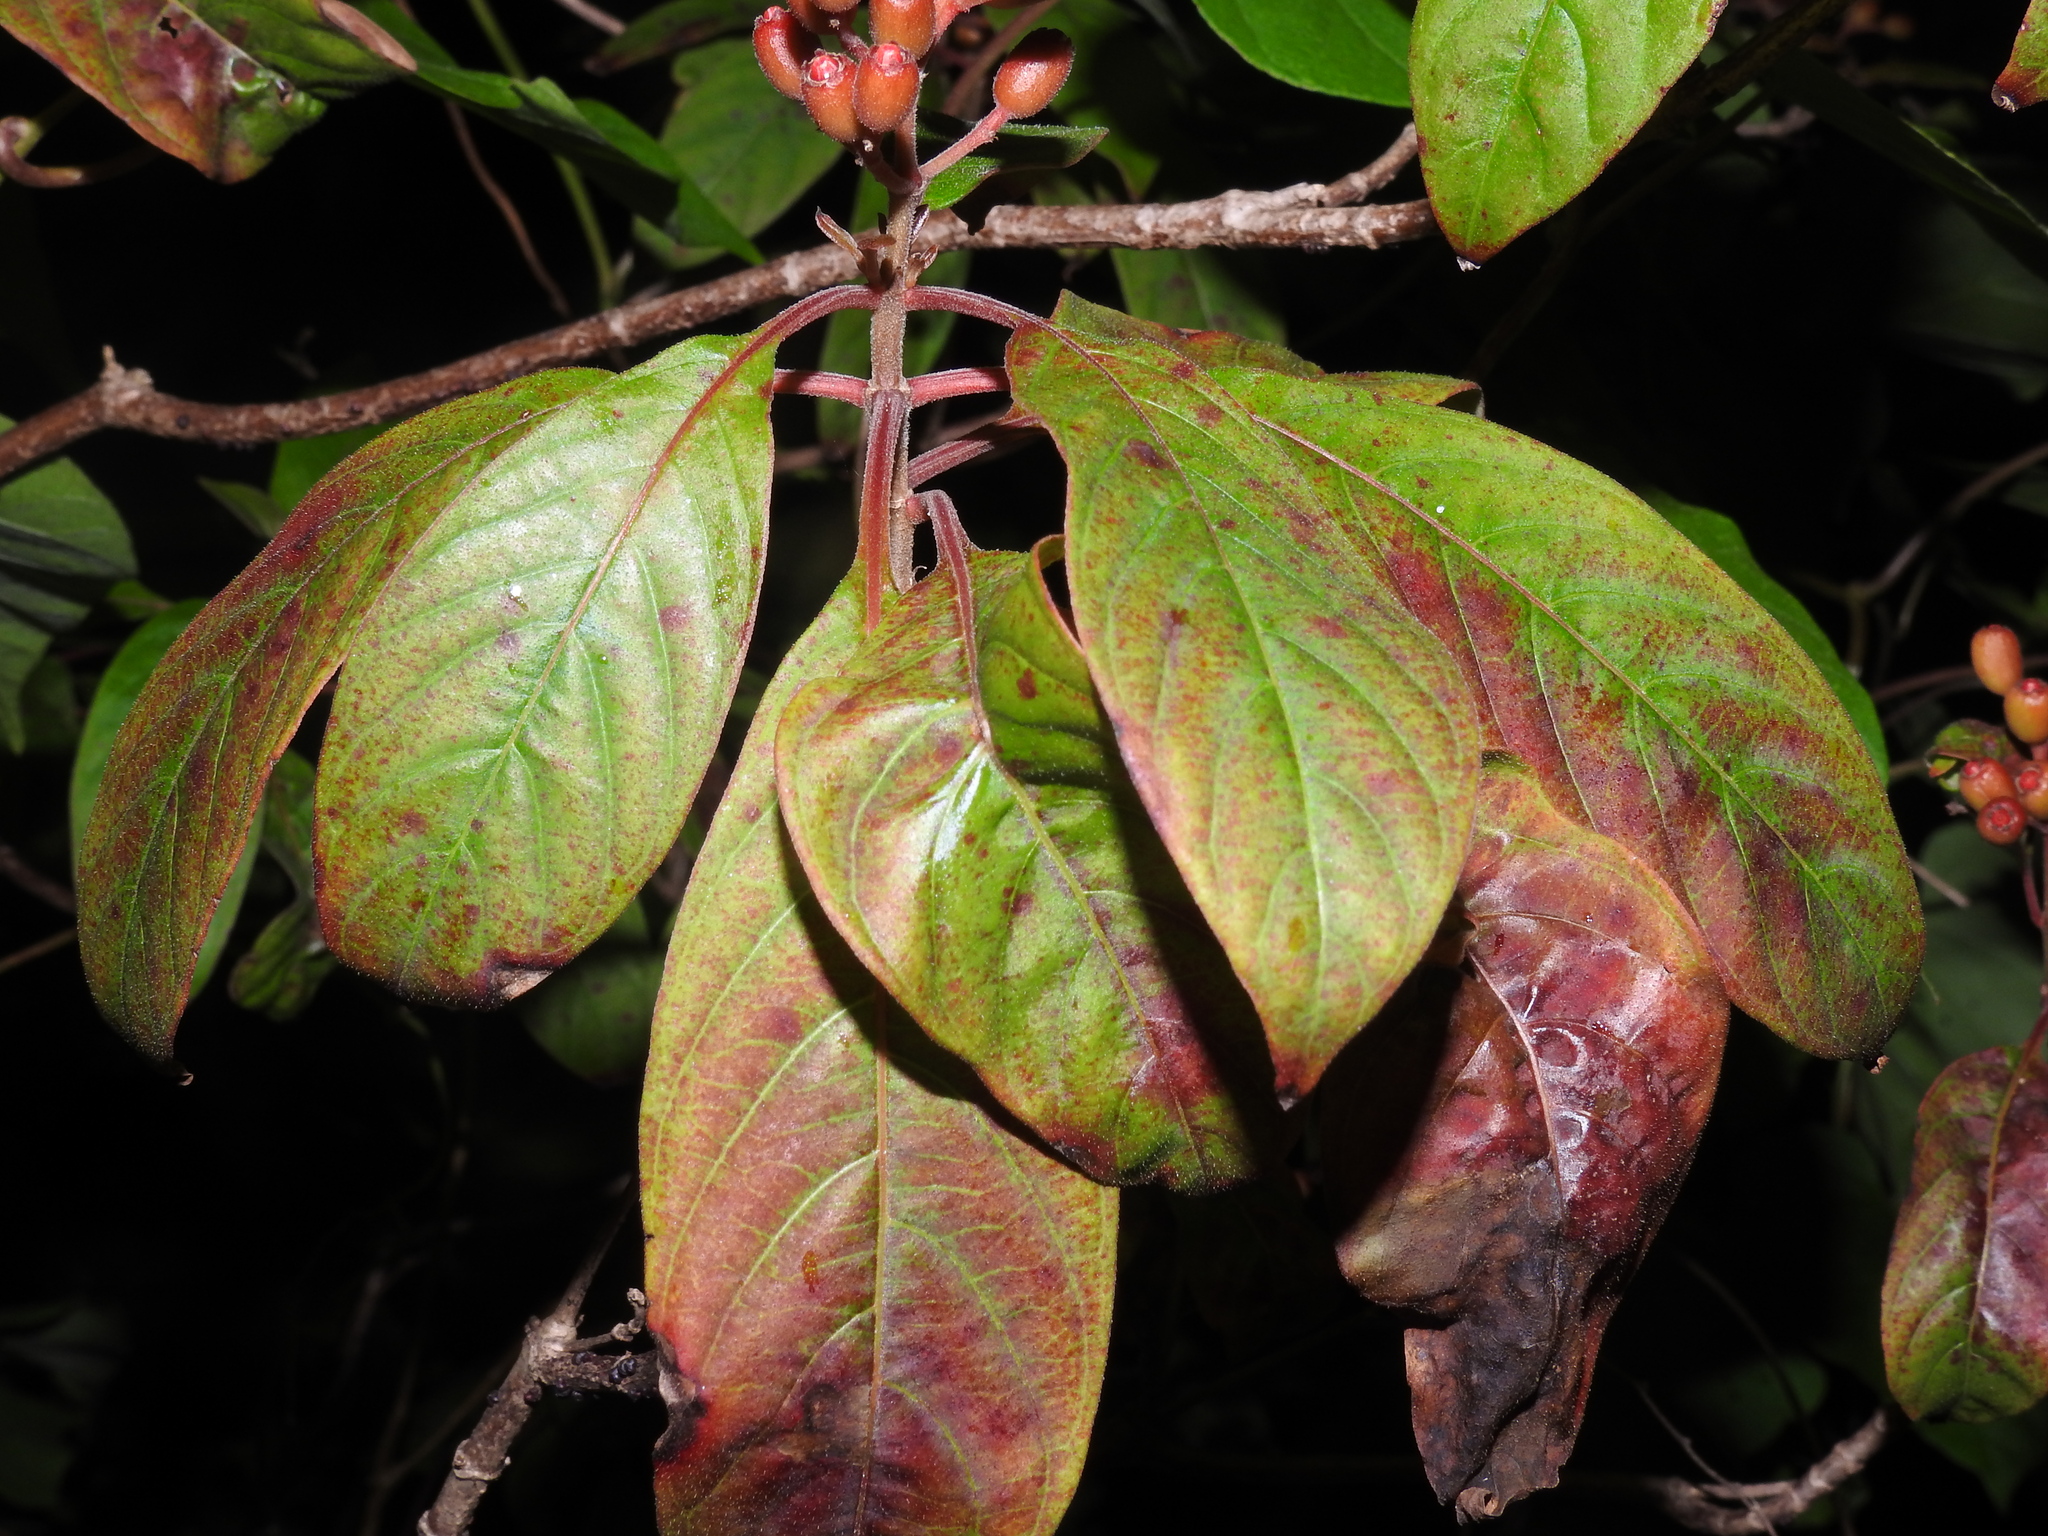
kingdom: Plantae
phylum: Tracheophyta
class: Magnoliopsida
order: Gentianales
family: Rubiaceae
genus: Hamelia
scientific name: Hamelia patens
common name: Redhead
